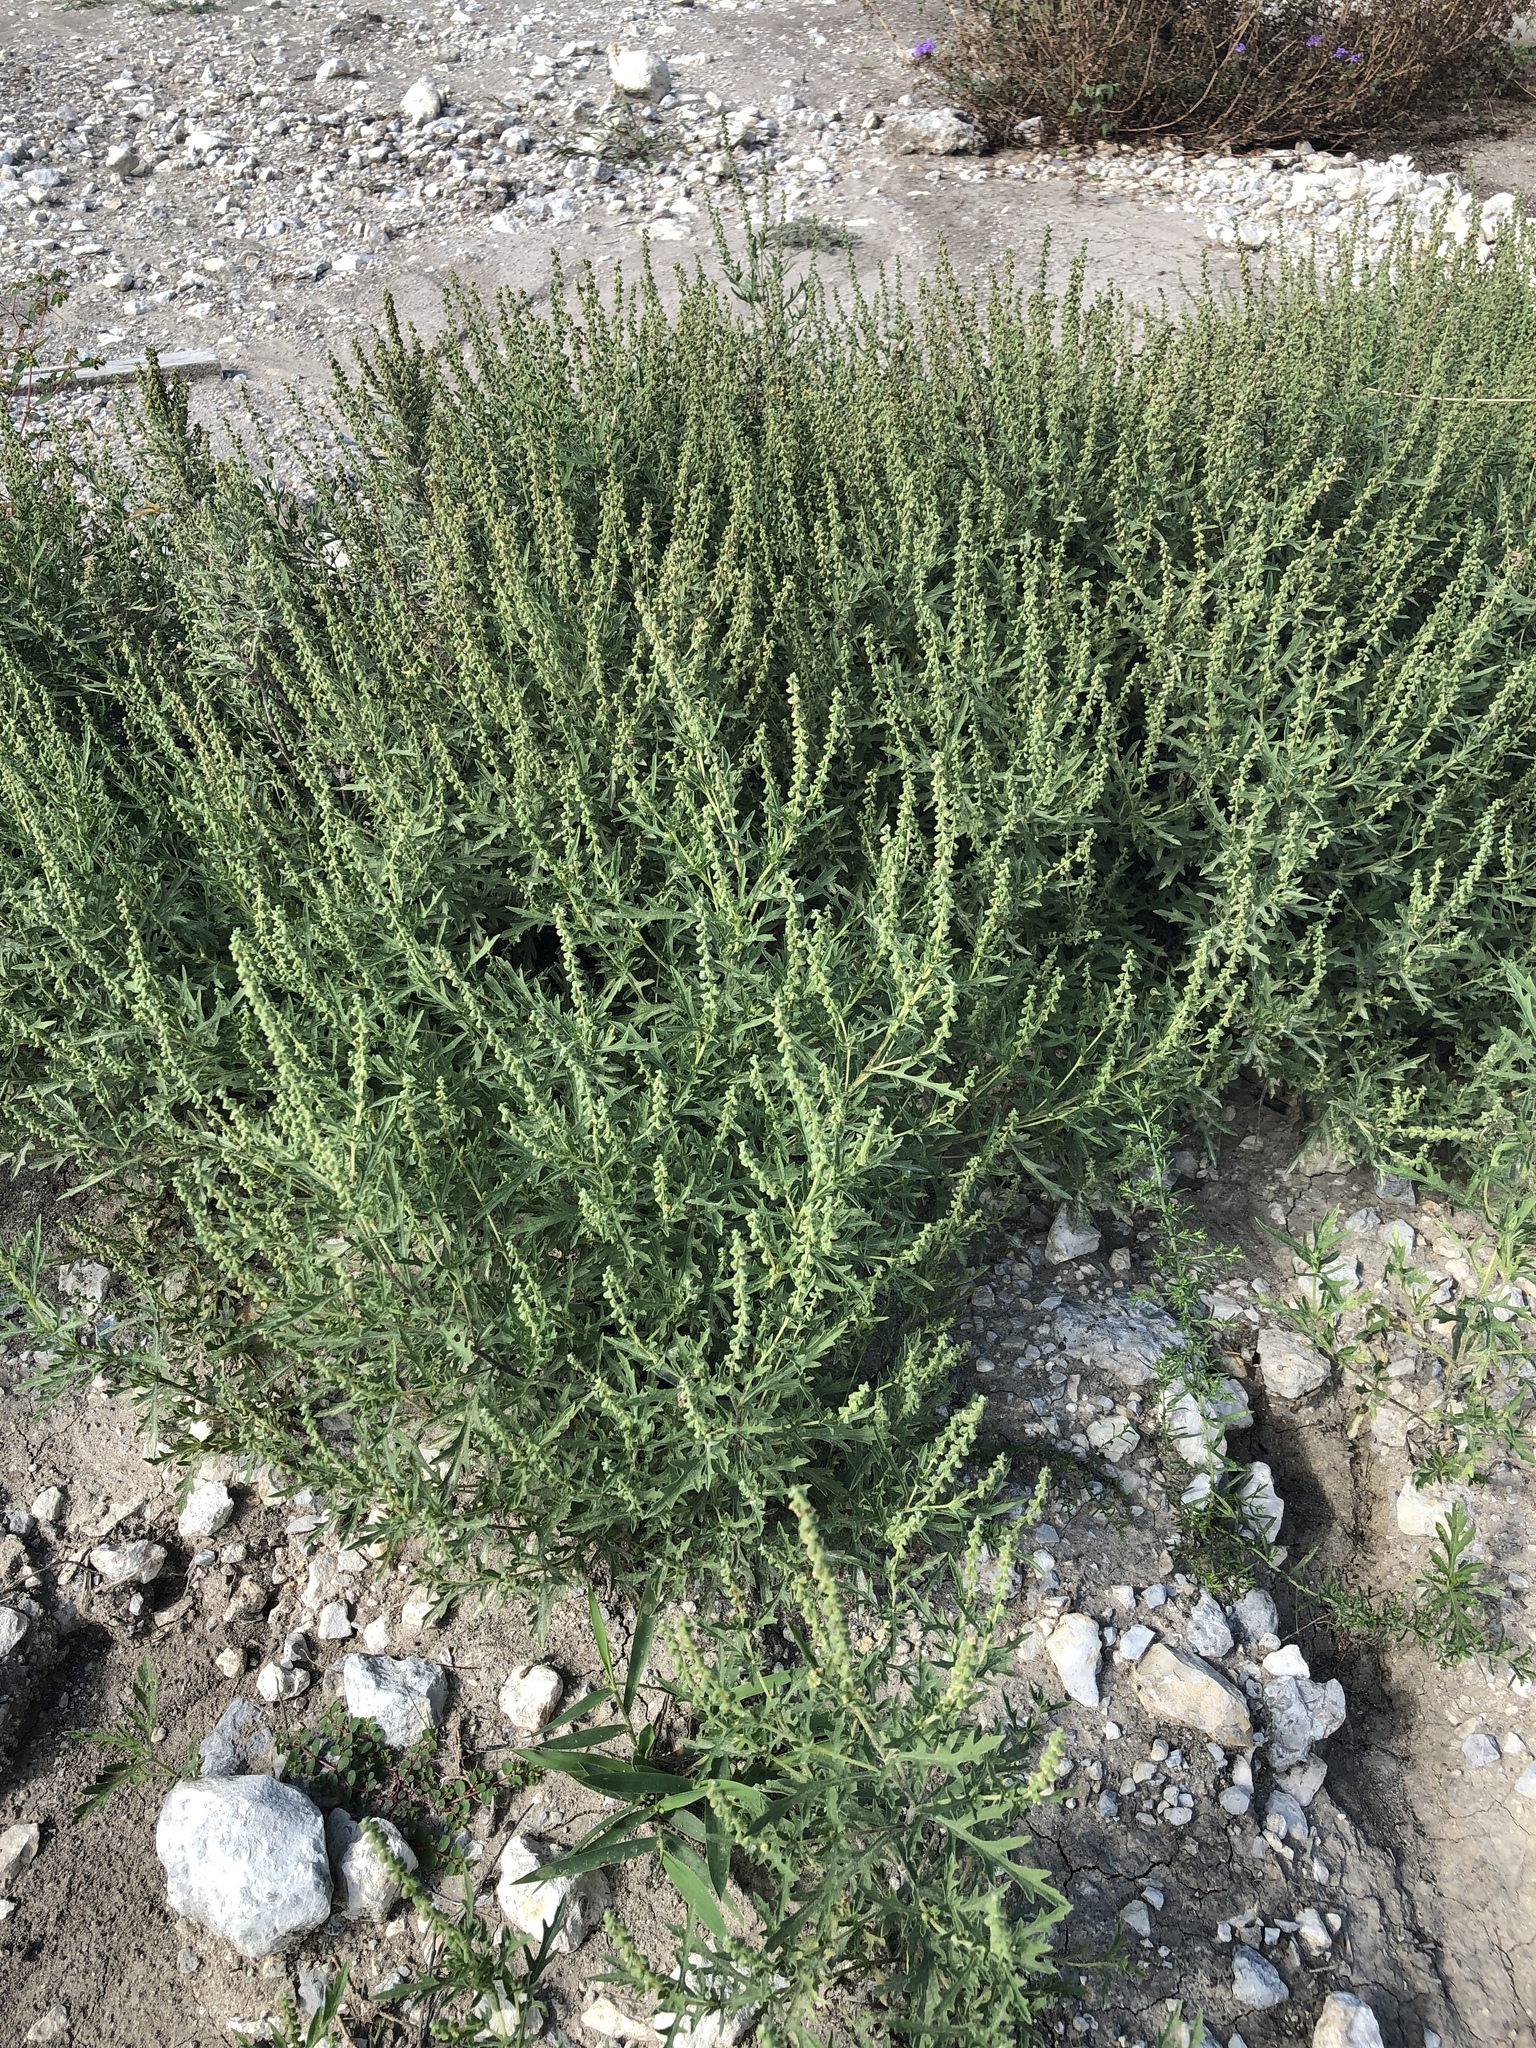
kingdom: Plantae
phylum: Tracheophyta
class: Magnoliopsida
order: Asterales
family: Asteraceae
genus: Ambrosia
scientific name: Ambrosia psilostachya
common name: Perennial ragweed
